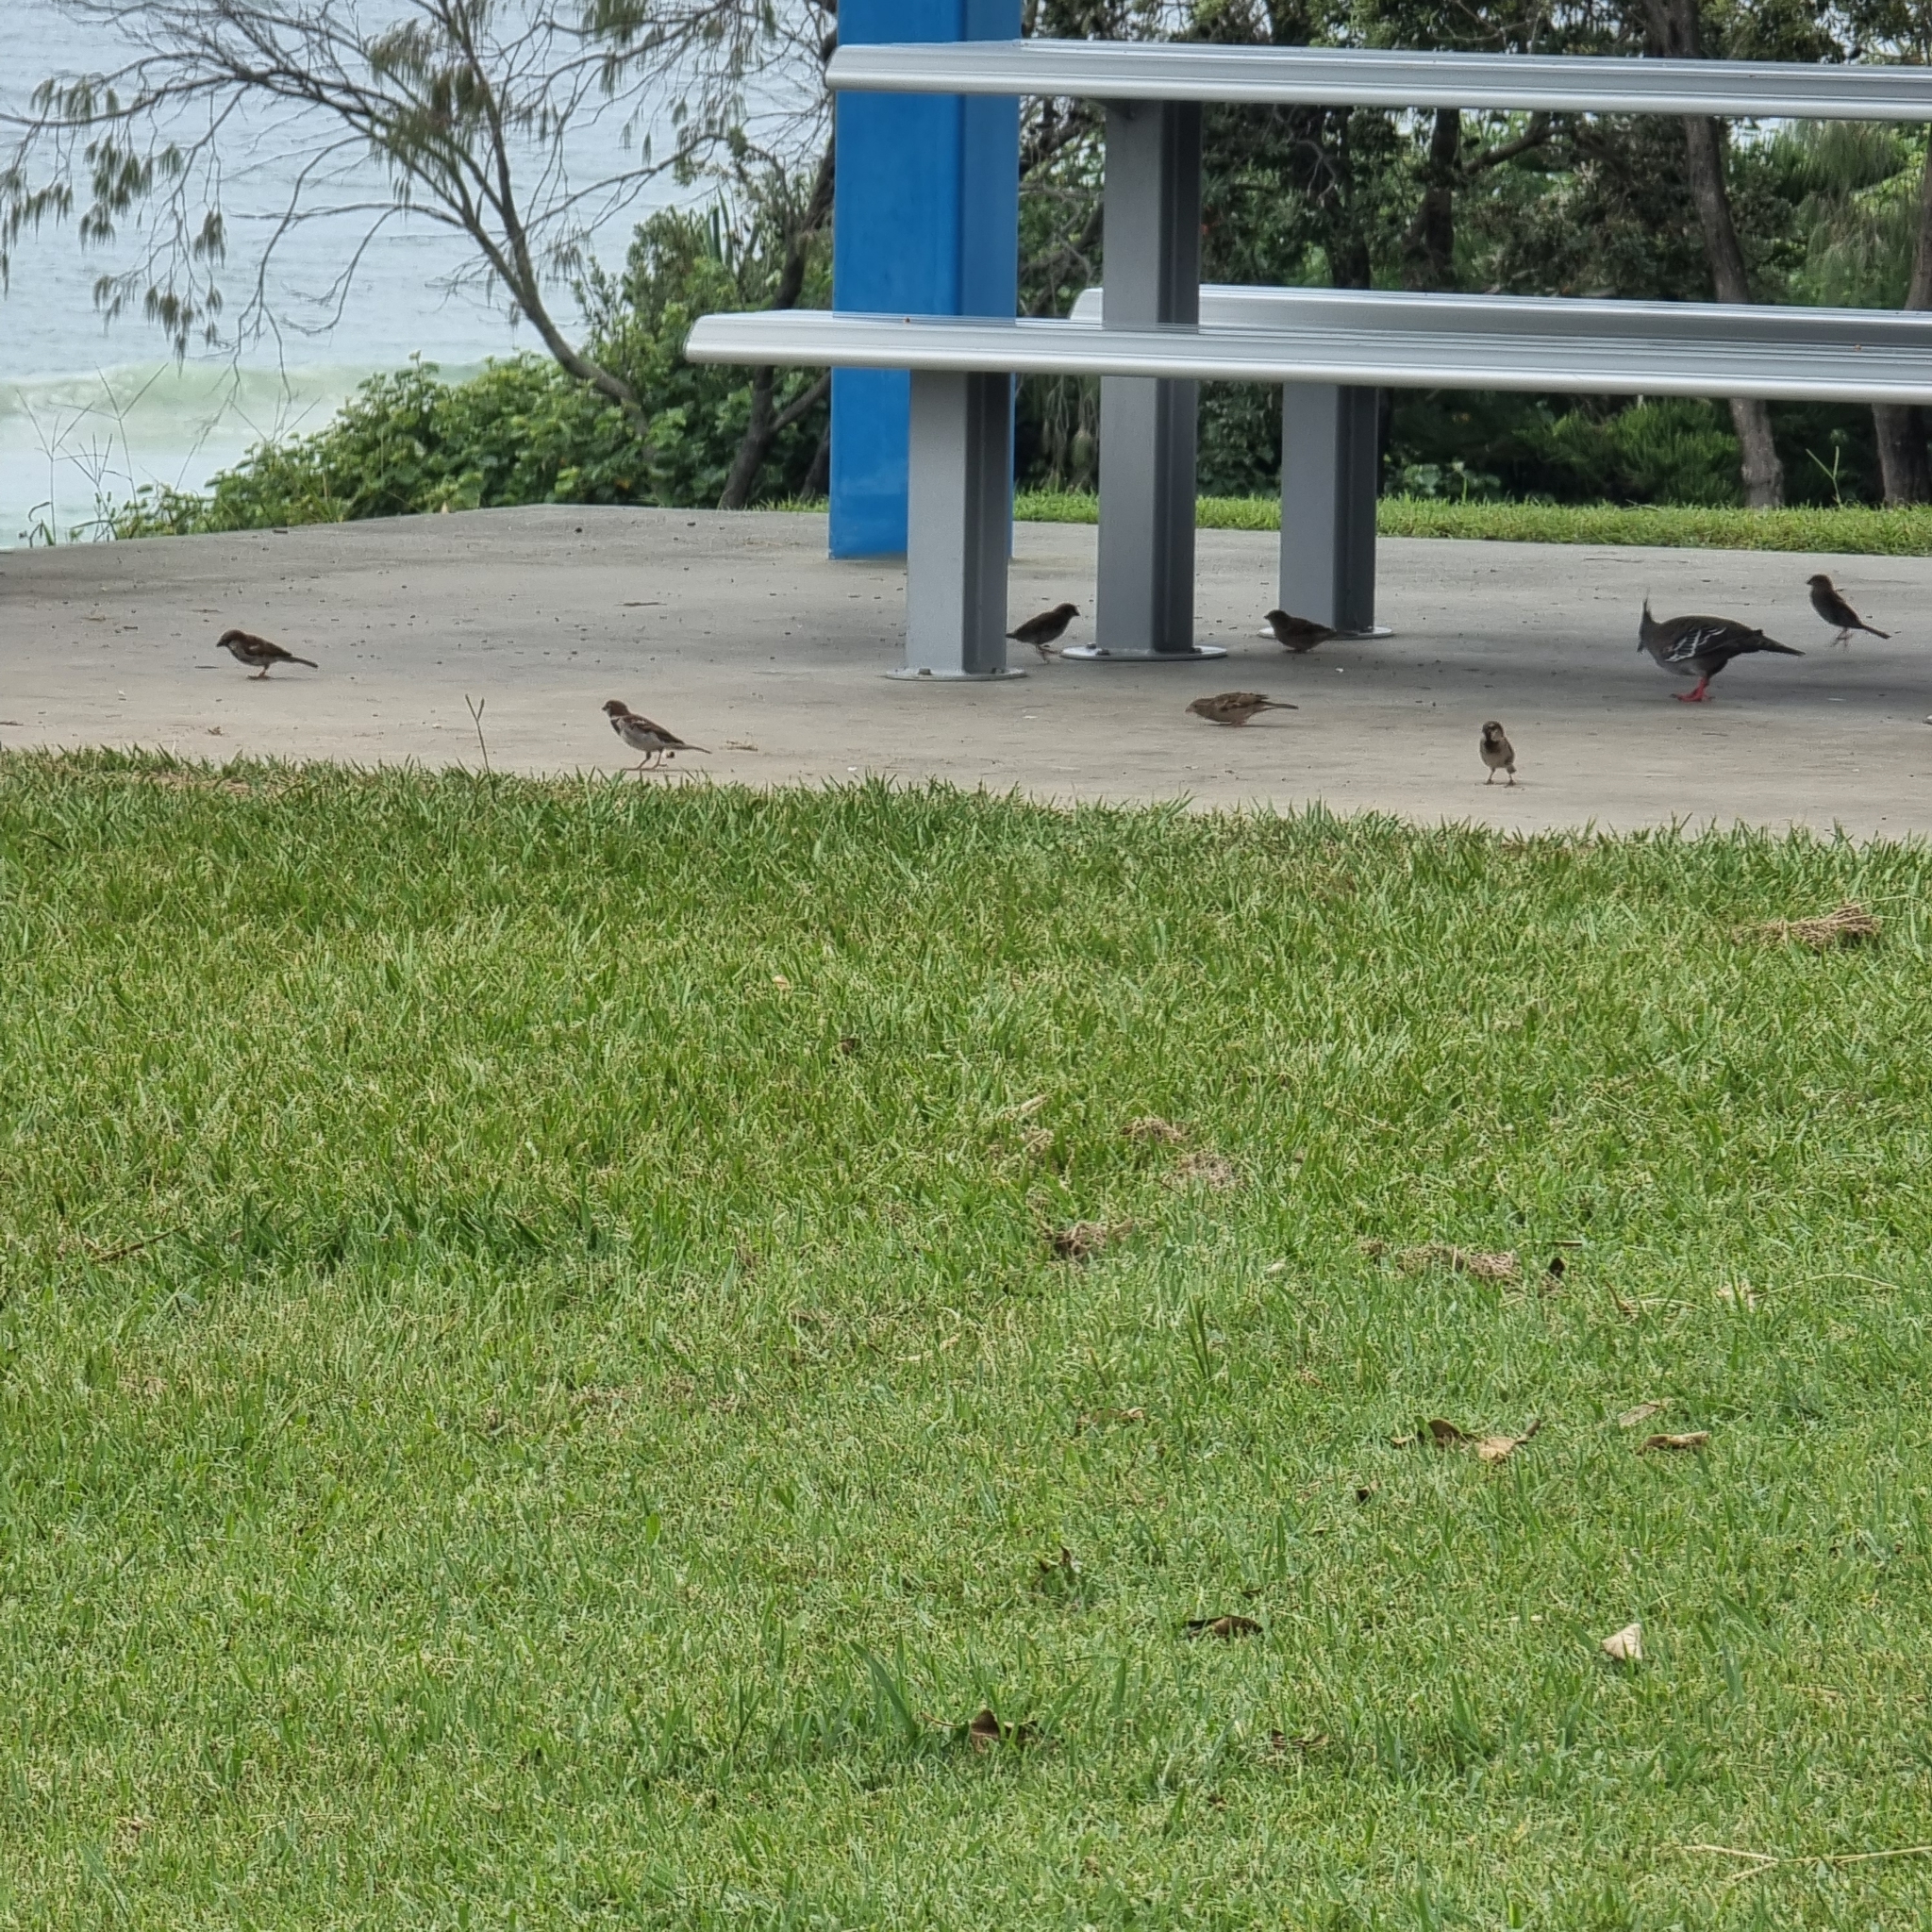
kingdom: Animalia
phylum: Chordata
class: Aves
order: Passeriformes
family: Passeridae
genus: Passer
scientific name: Passer domesticus
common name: House sparrow
